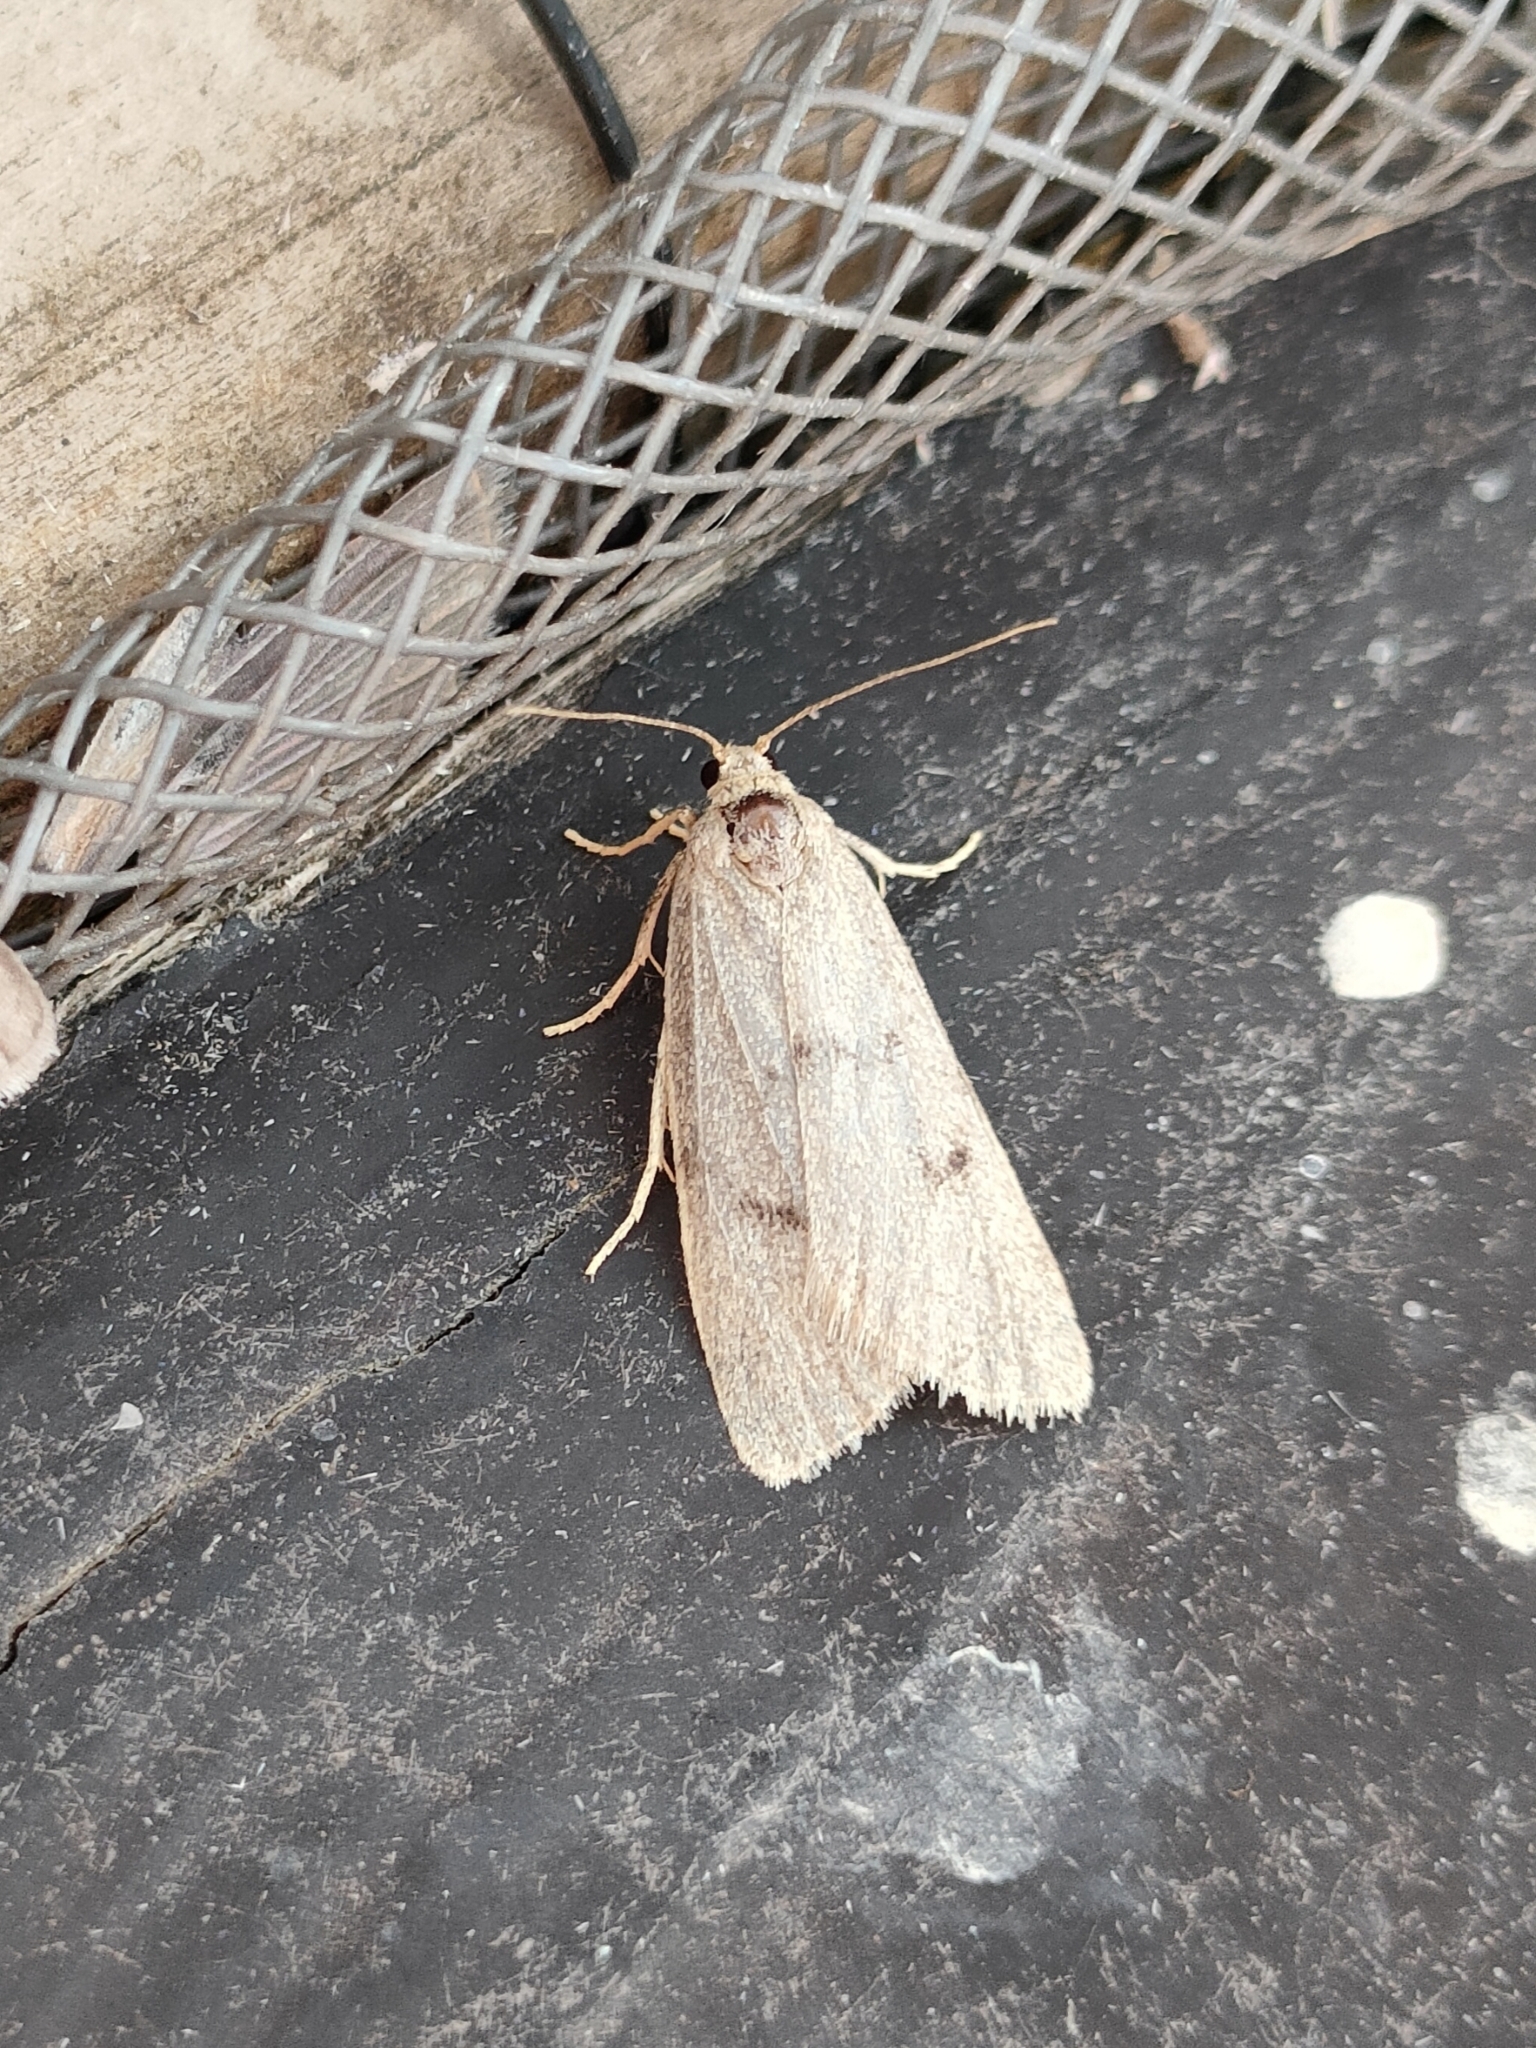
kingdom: Animalia
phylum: Arthropoda
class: Insecta
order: Lepidoptera
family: Erebidae
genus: Apaidia
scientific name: Apaidia mesogona
